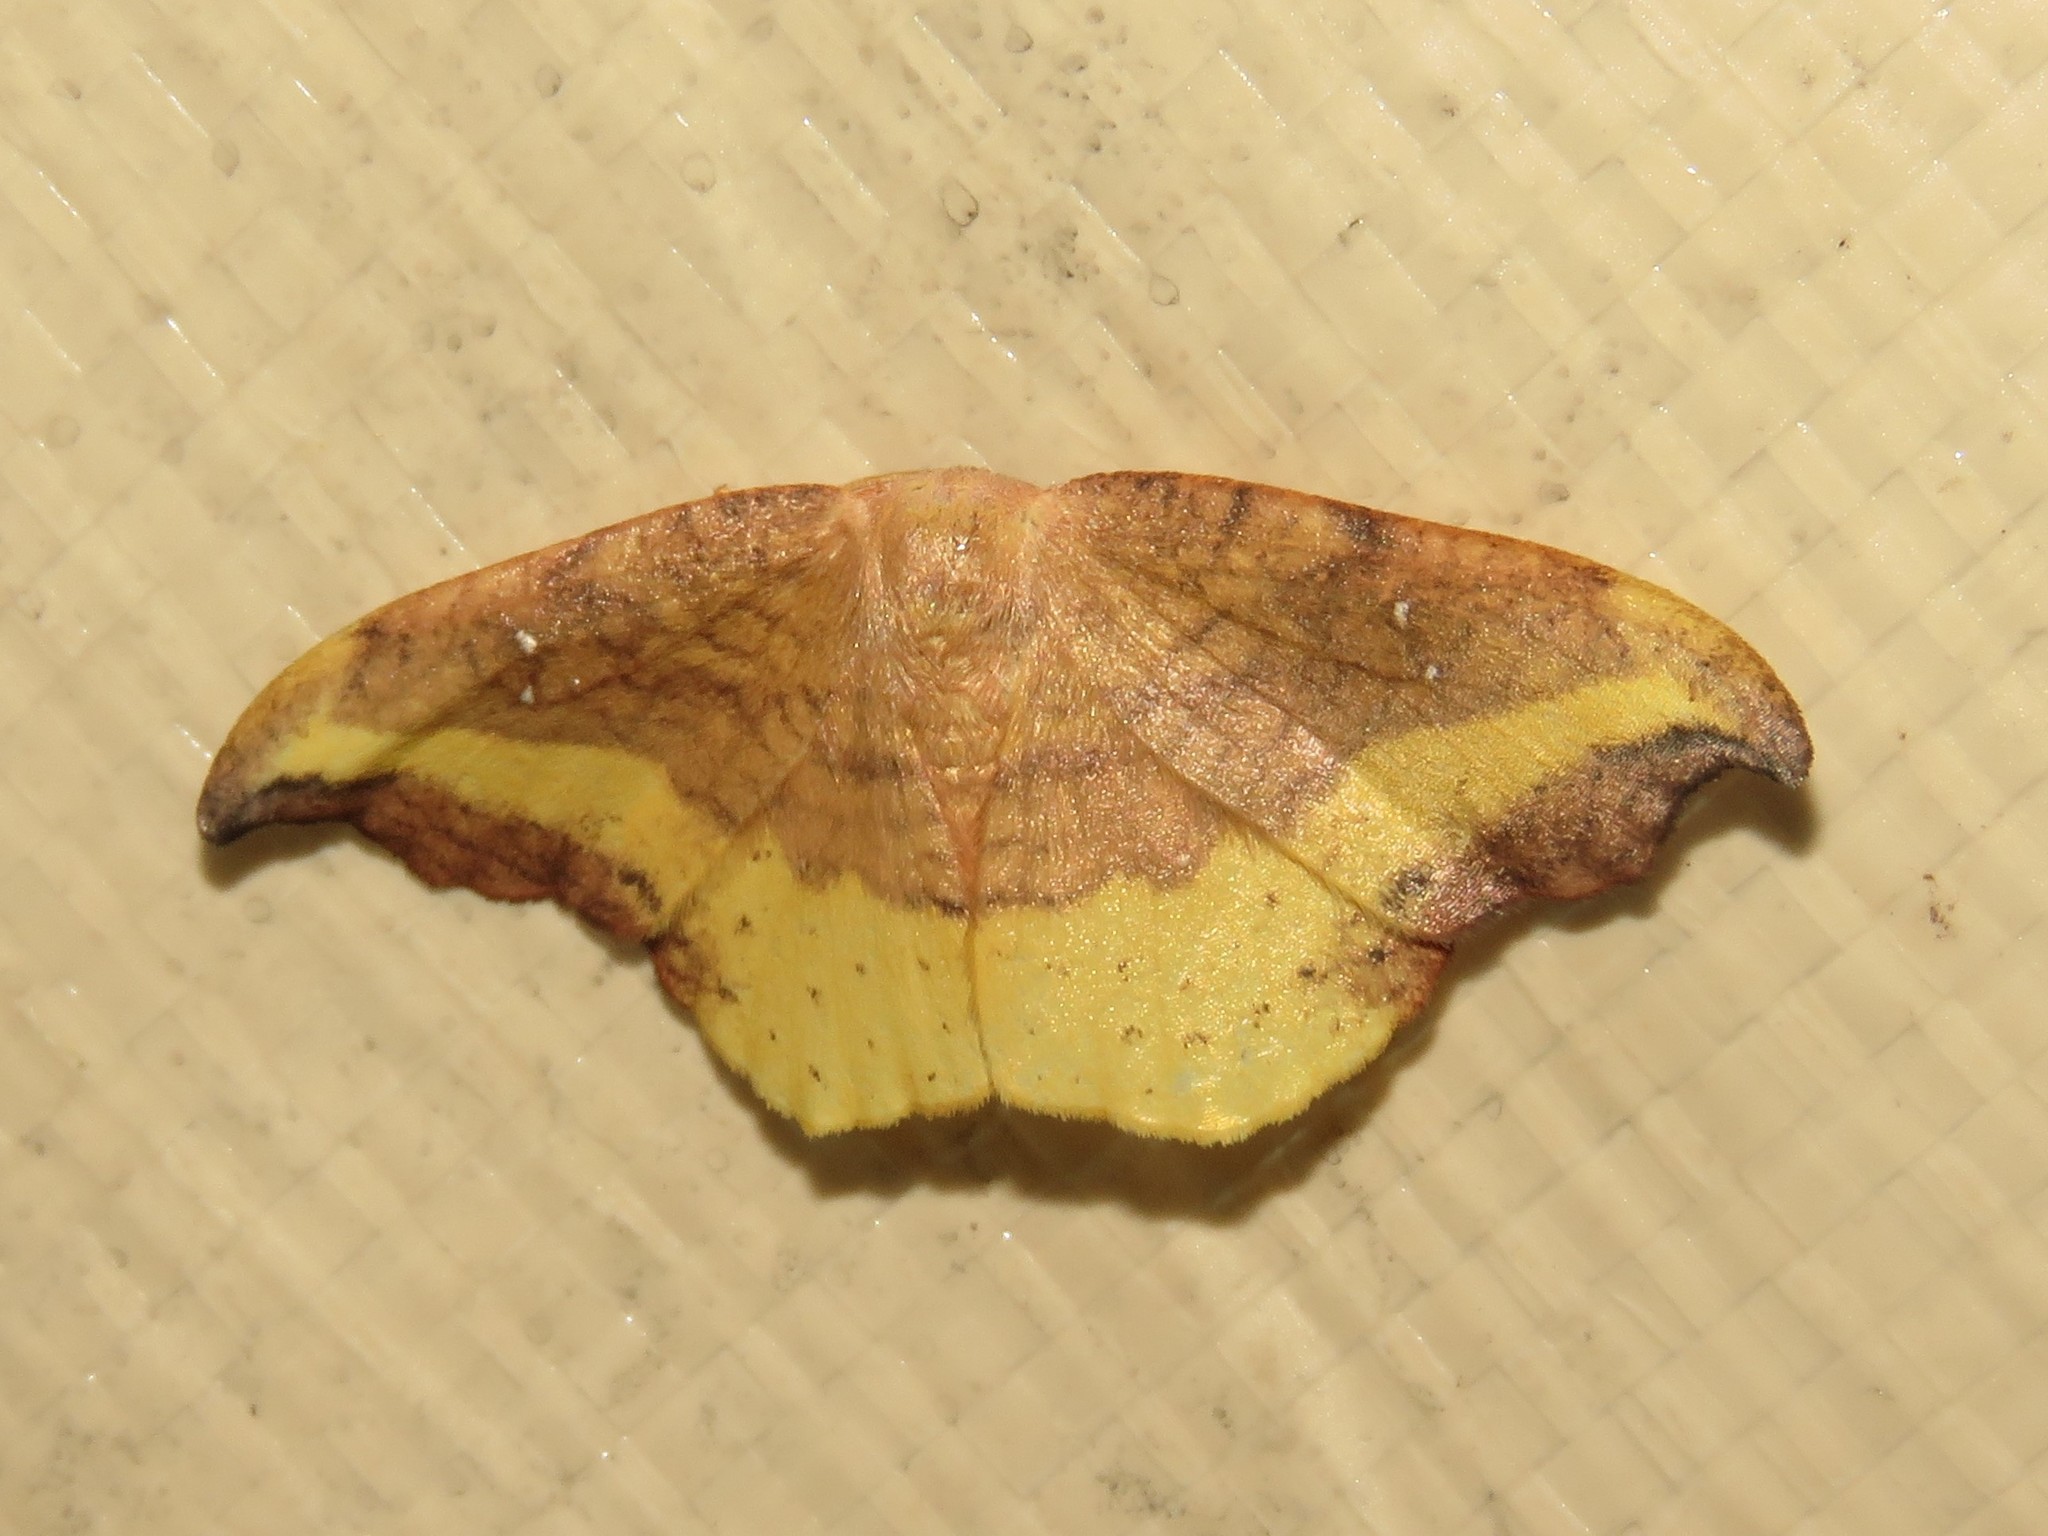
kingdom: Animalia
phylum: Arthropoda
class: Insecta
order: Lepidoptera
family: Drepanidae
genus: Oreta
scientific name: Oreta rosea
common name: Rose hooktip
